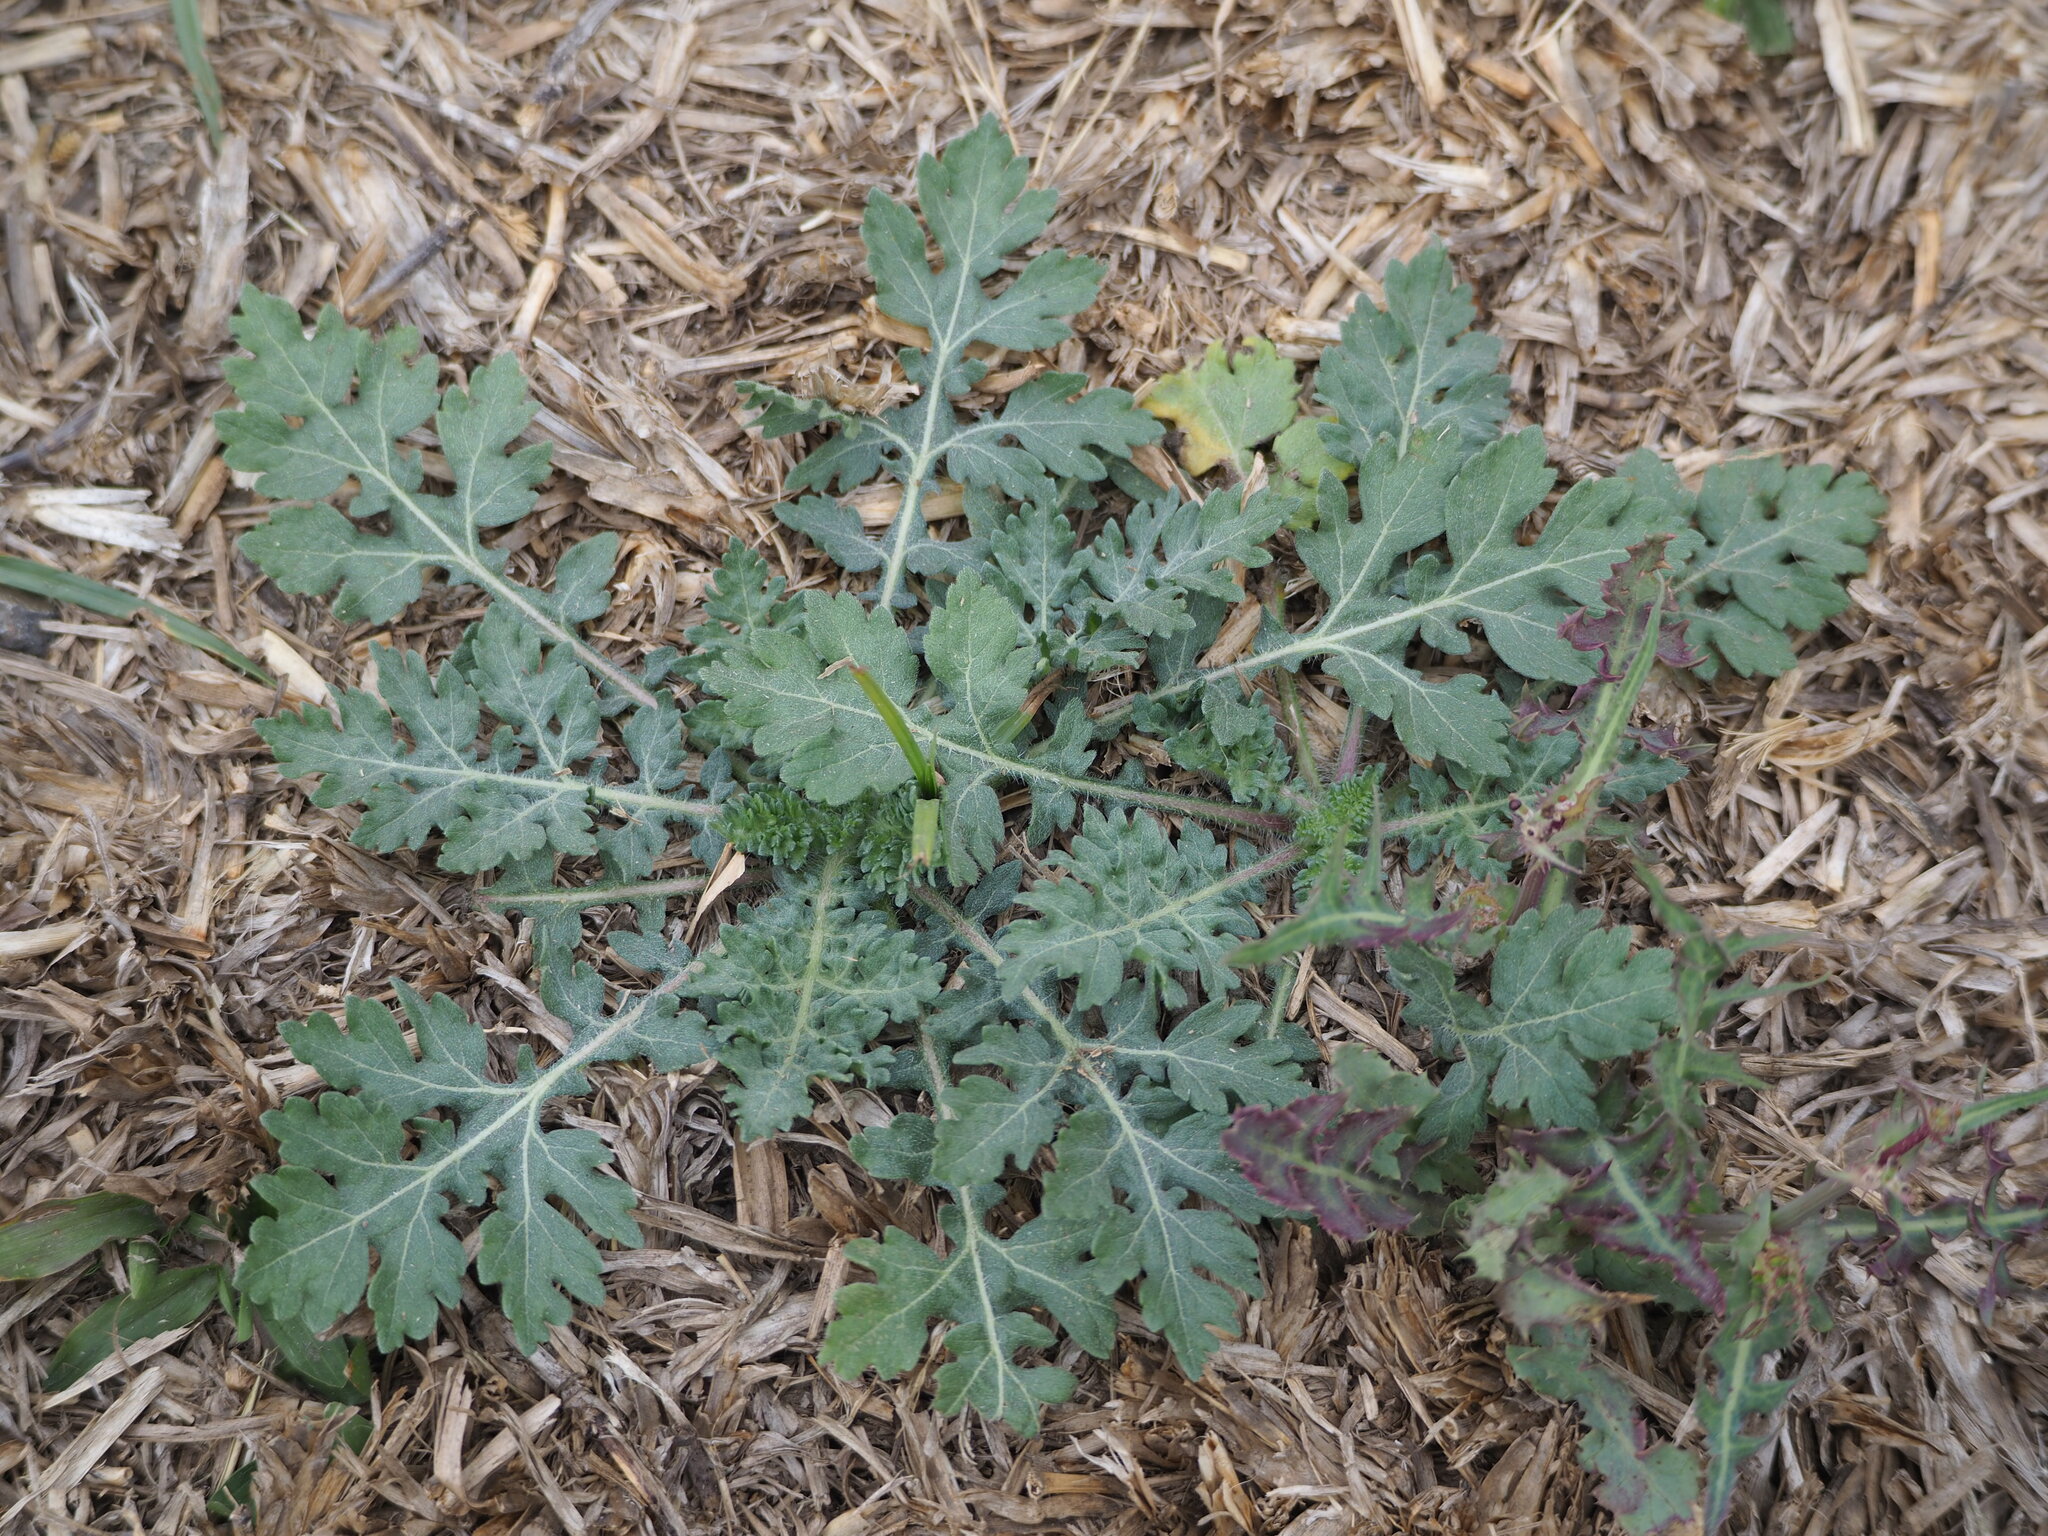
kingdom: Plantae
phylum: Tracheophyta
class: Magnoliopsida
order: Asterales
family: Asteraceae
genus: Parthenium
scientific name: Parthenium hysterophorus
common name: Santa maria feverfew
